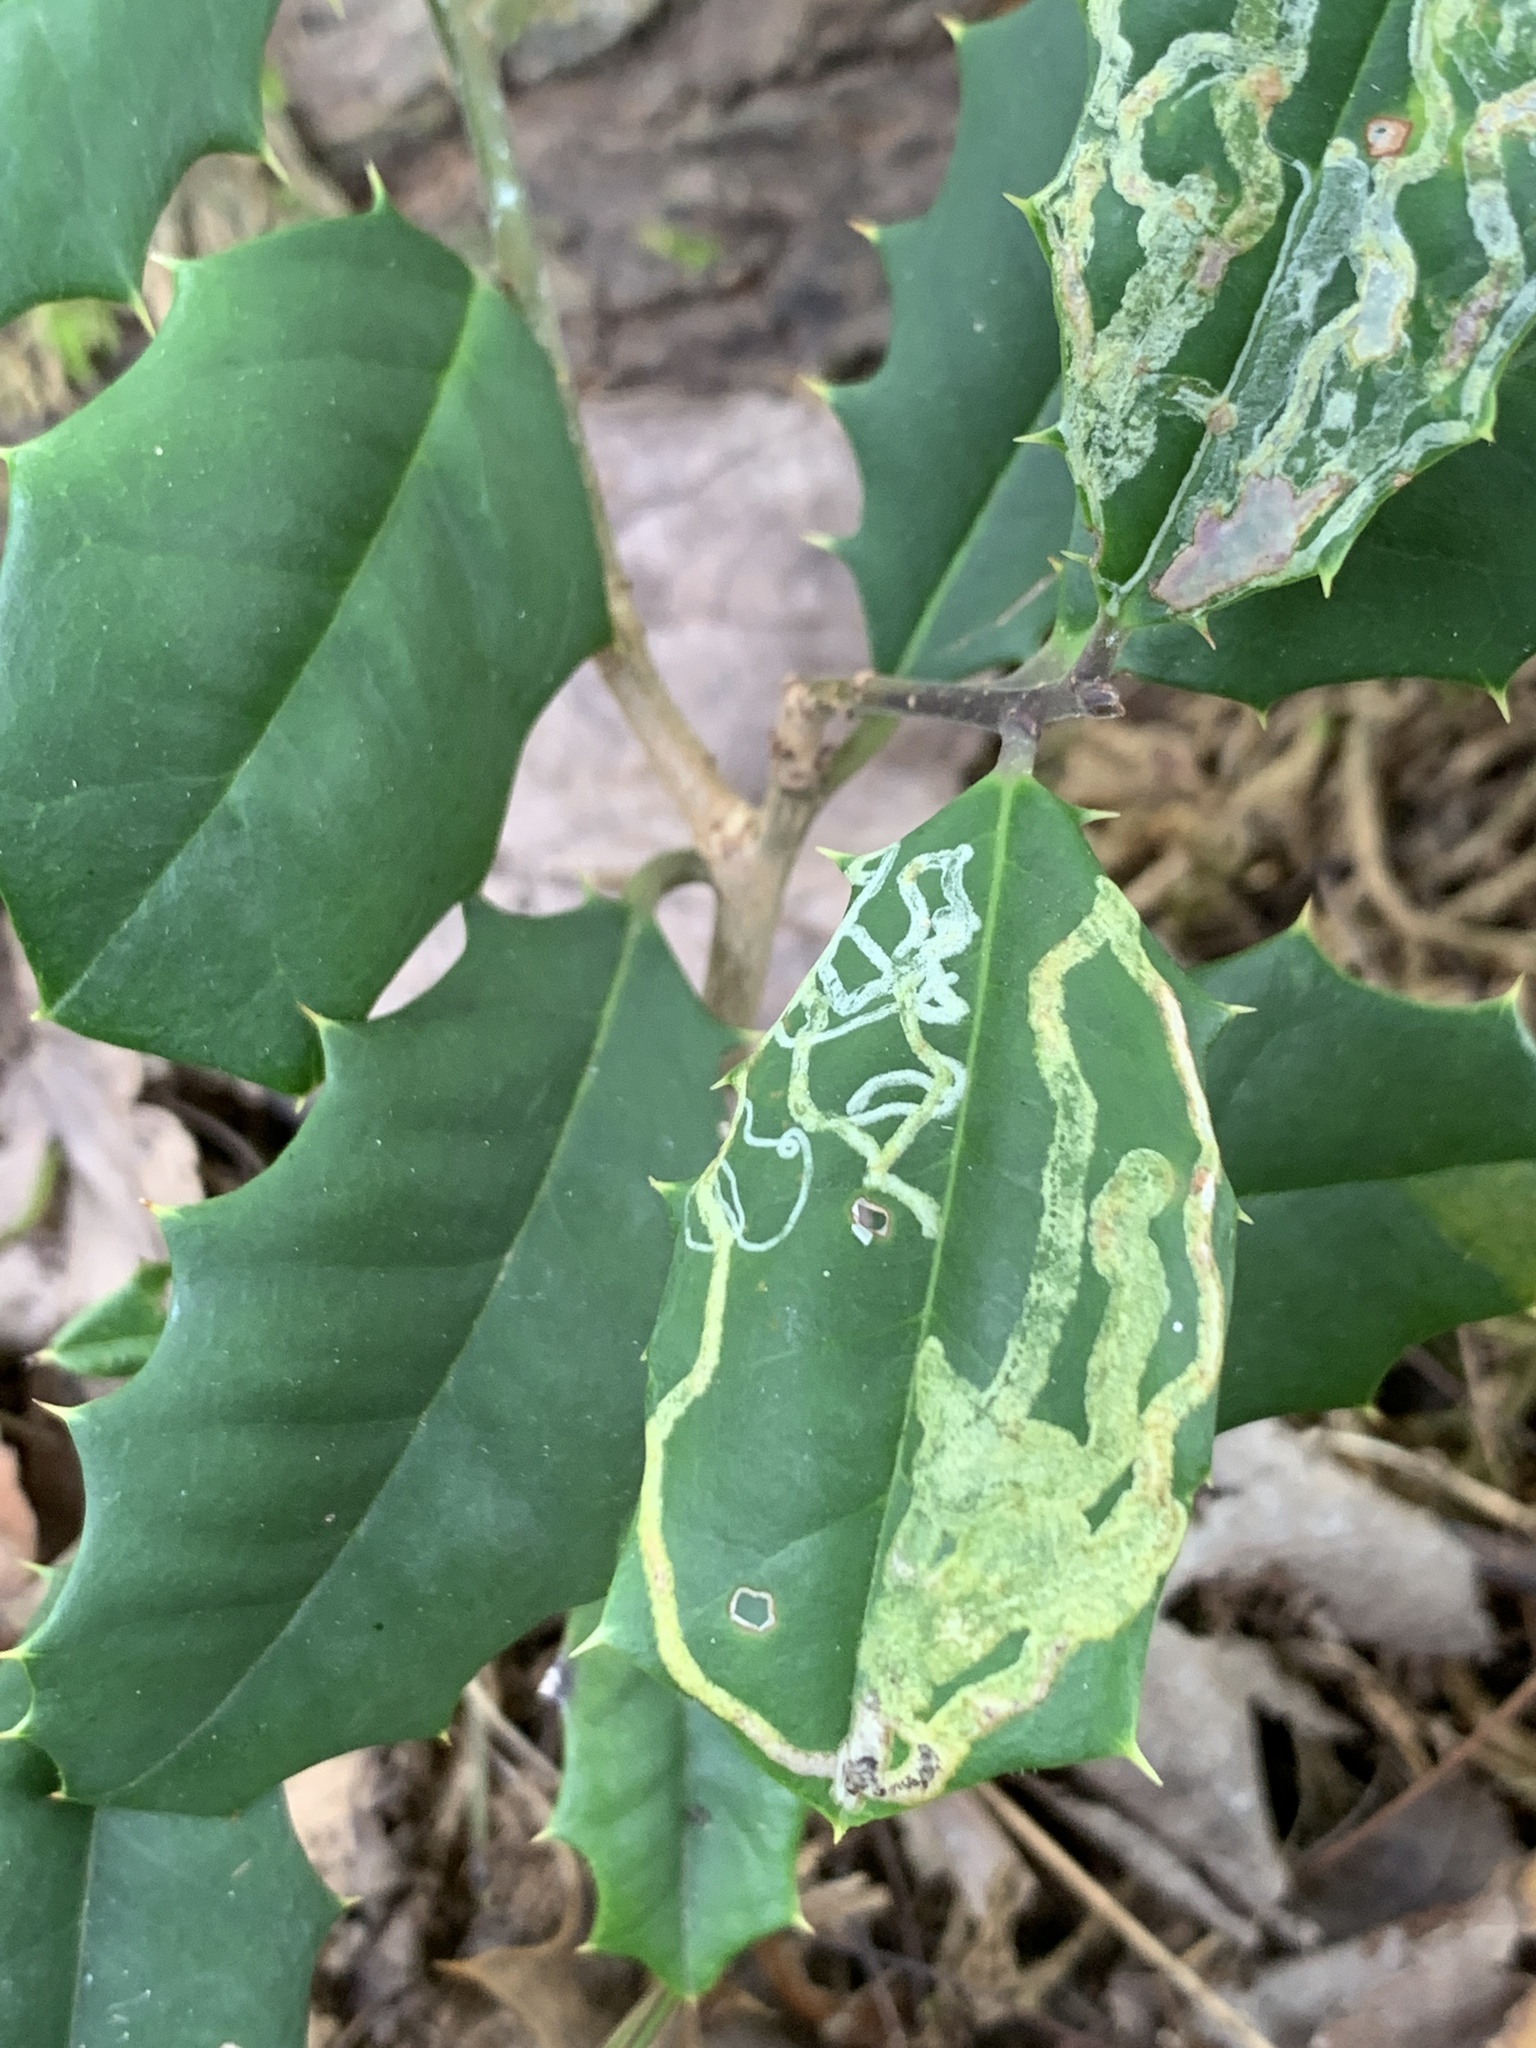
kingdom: Animalia
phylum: Arthropoda
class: Insecta
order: Diptera
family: Agromyzidae
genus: Phytomyza
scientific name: Phytomyza opacae
